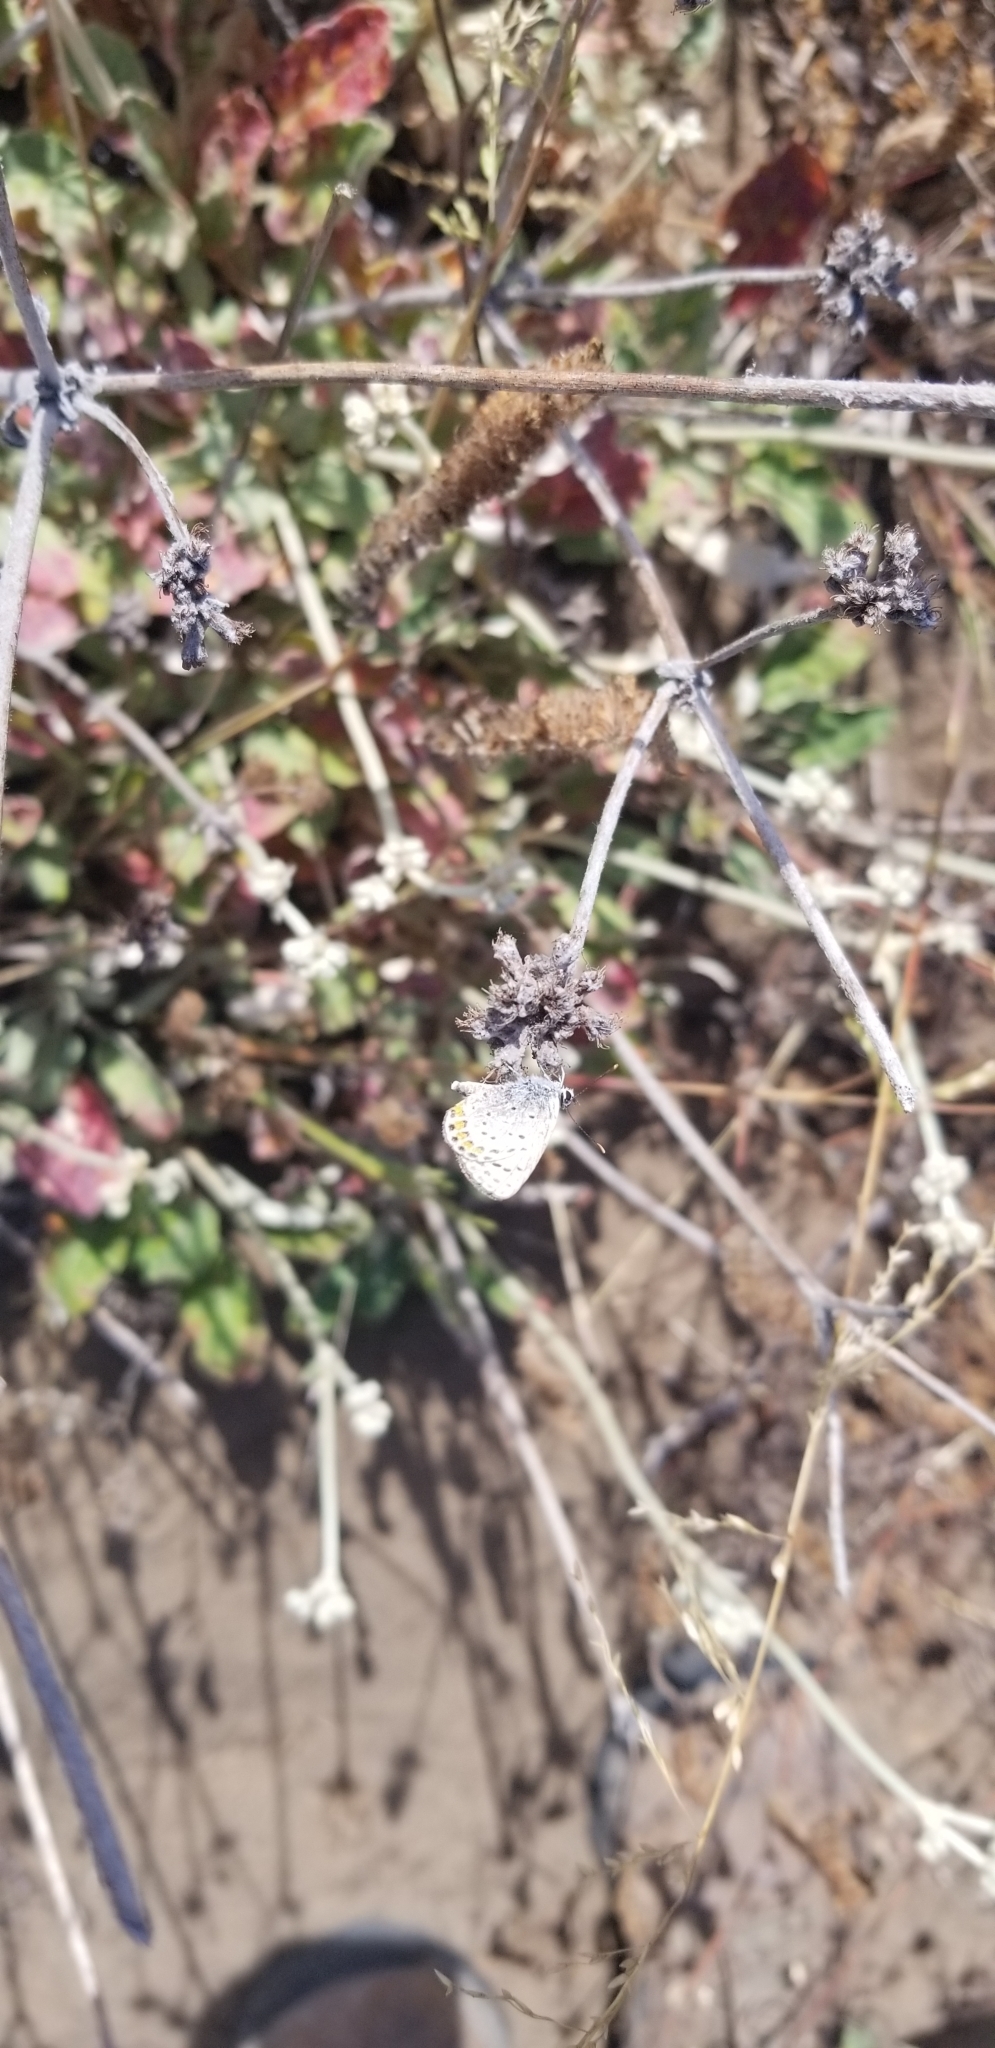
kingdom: Animalia
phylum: Arthropoda
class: Insecta
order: Lepidoptera
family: Lycaenidae
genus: Icaricia
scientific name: Icaricia acmon
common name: Acmon blue
